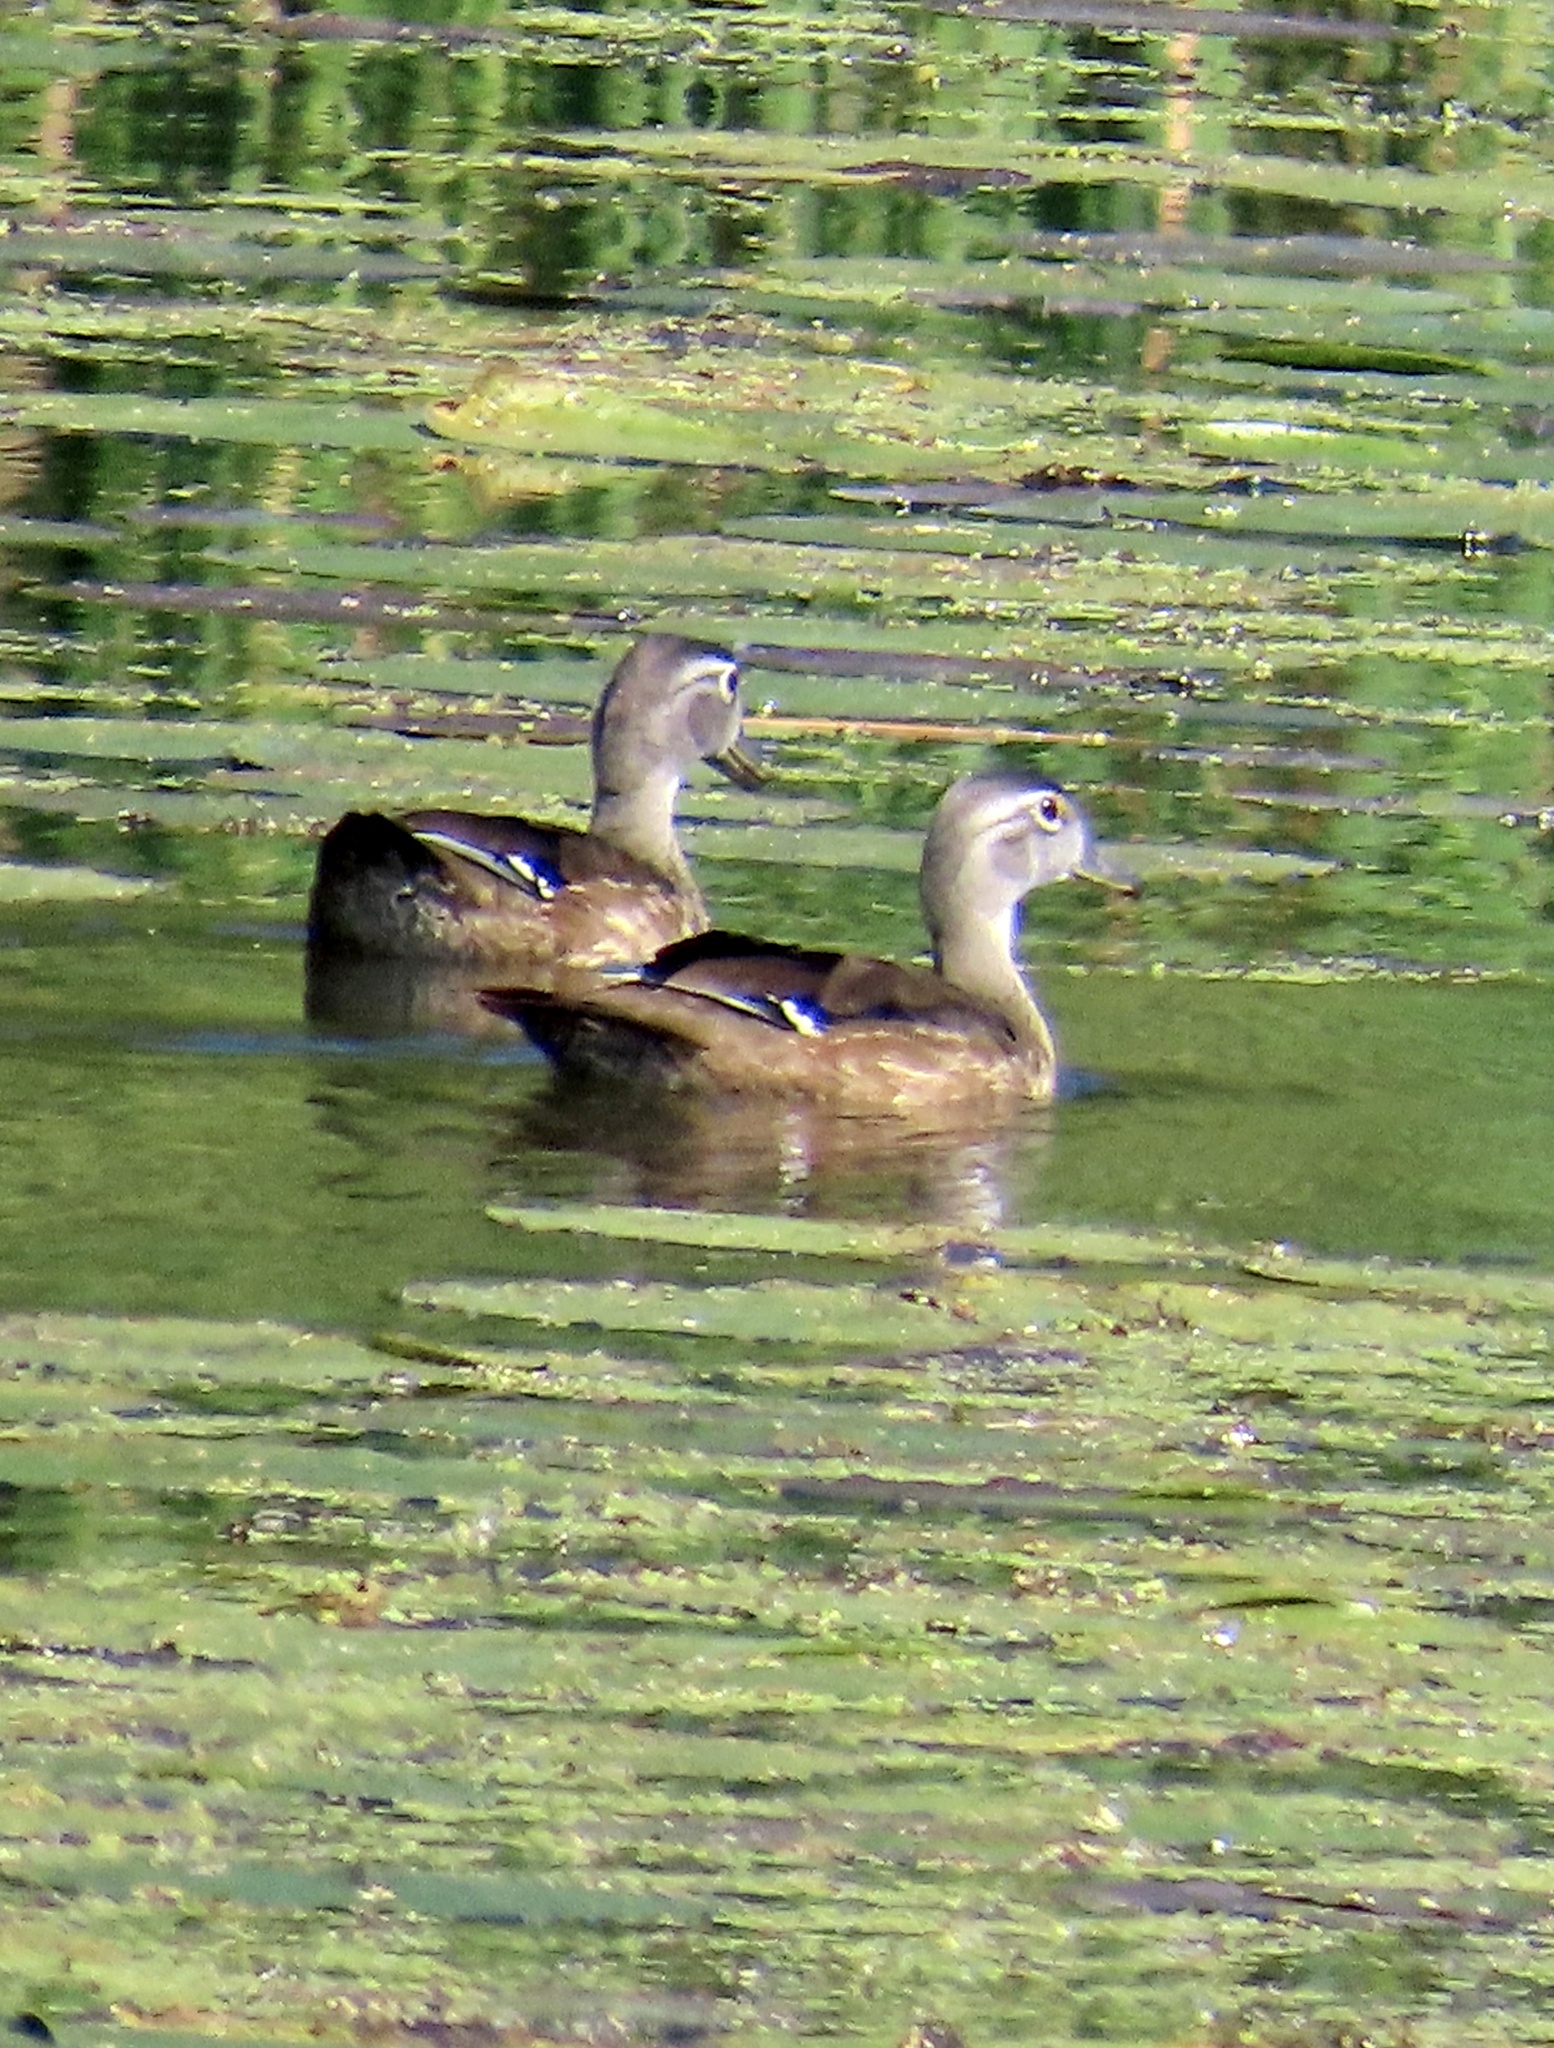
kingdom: Animalia
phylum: Chordata
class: Aves
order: Anseriformes
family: Anatidae
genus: Aix
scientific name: Aix sponsa
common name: Wood duck
